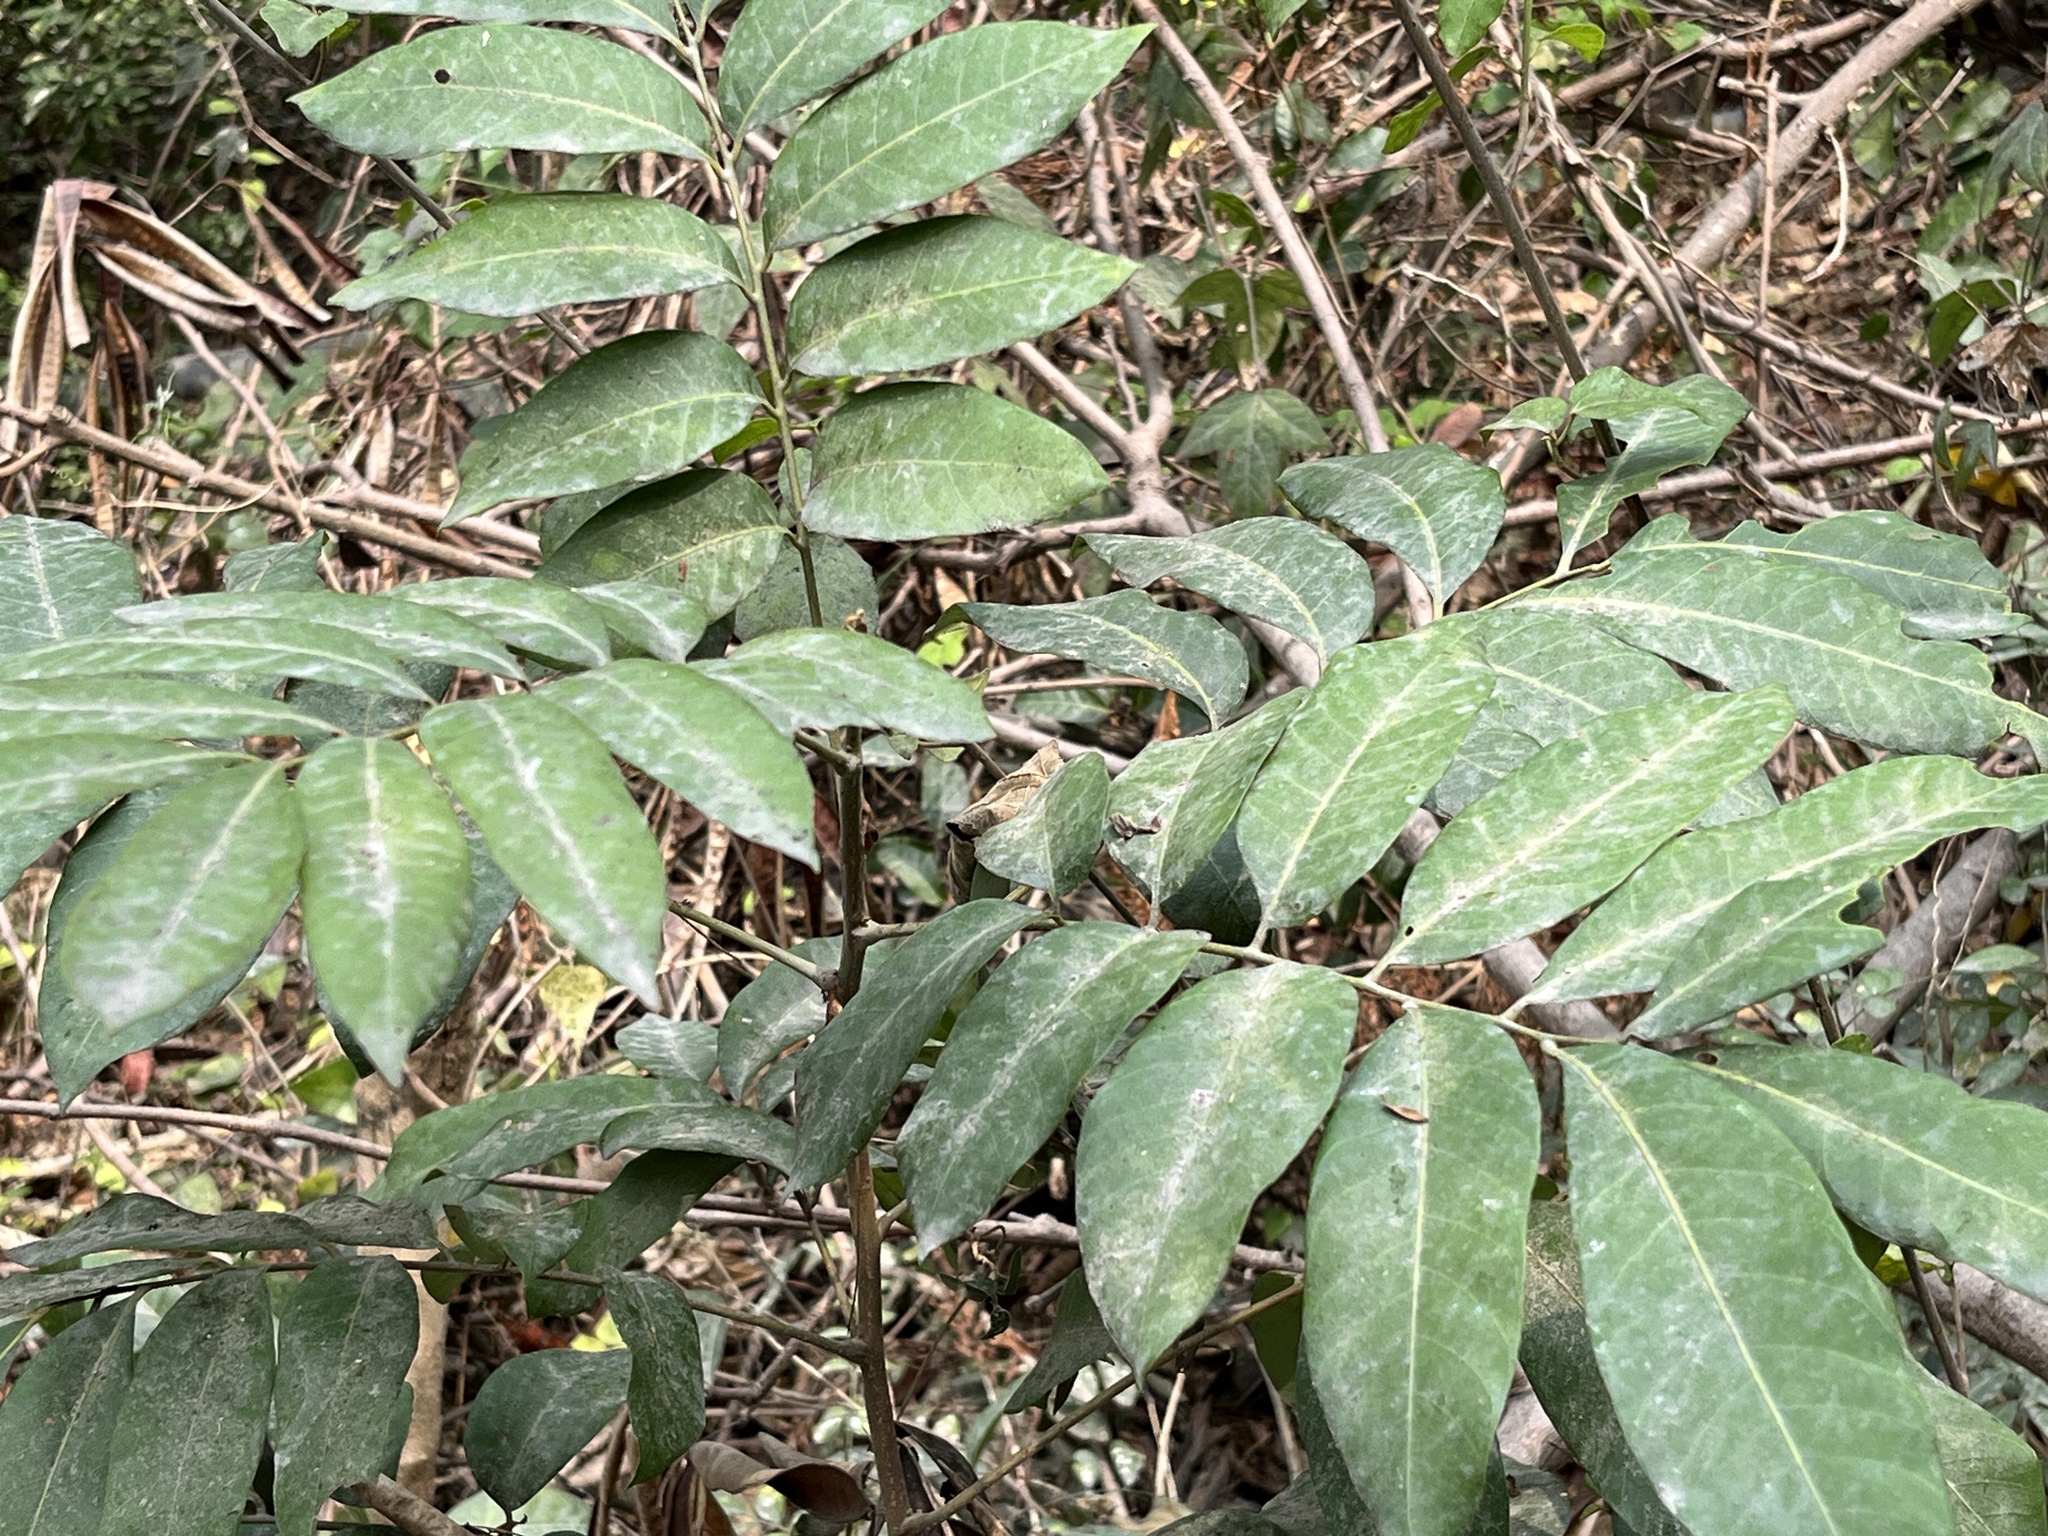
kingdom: Plantae
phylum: Tracheophyta
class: Magnoliopsida
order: Sapindales
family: Sapindaceae
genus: Dimocarpus
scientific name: Dimocarpus longan
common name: Longan
